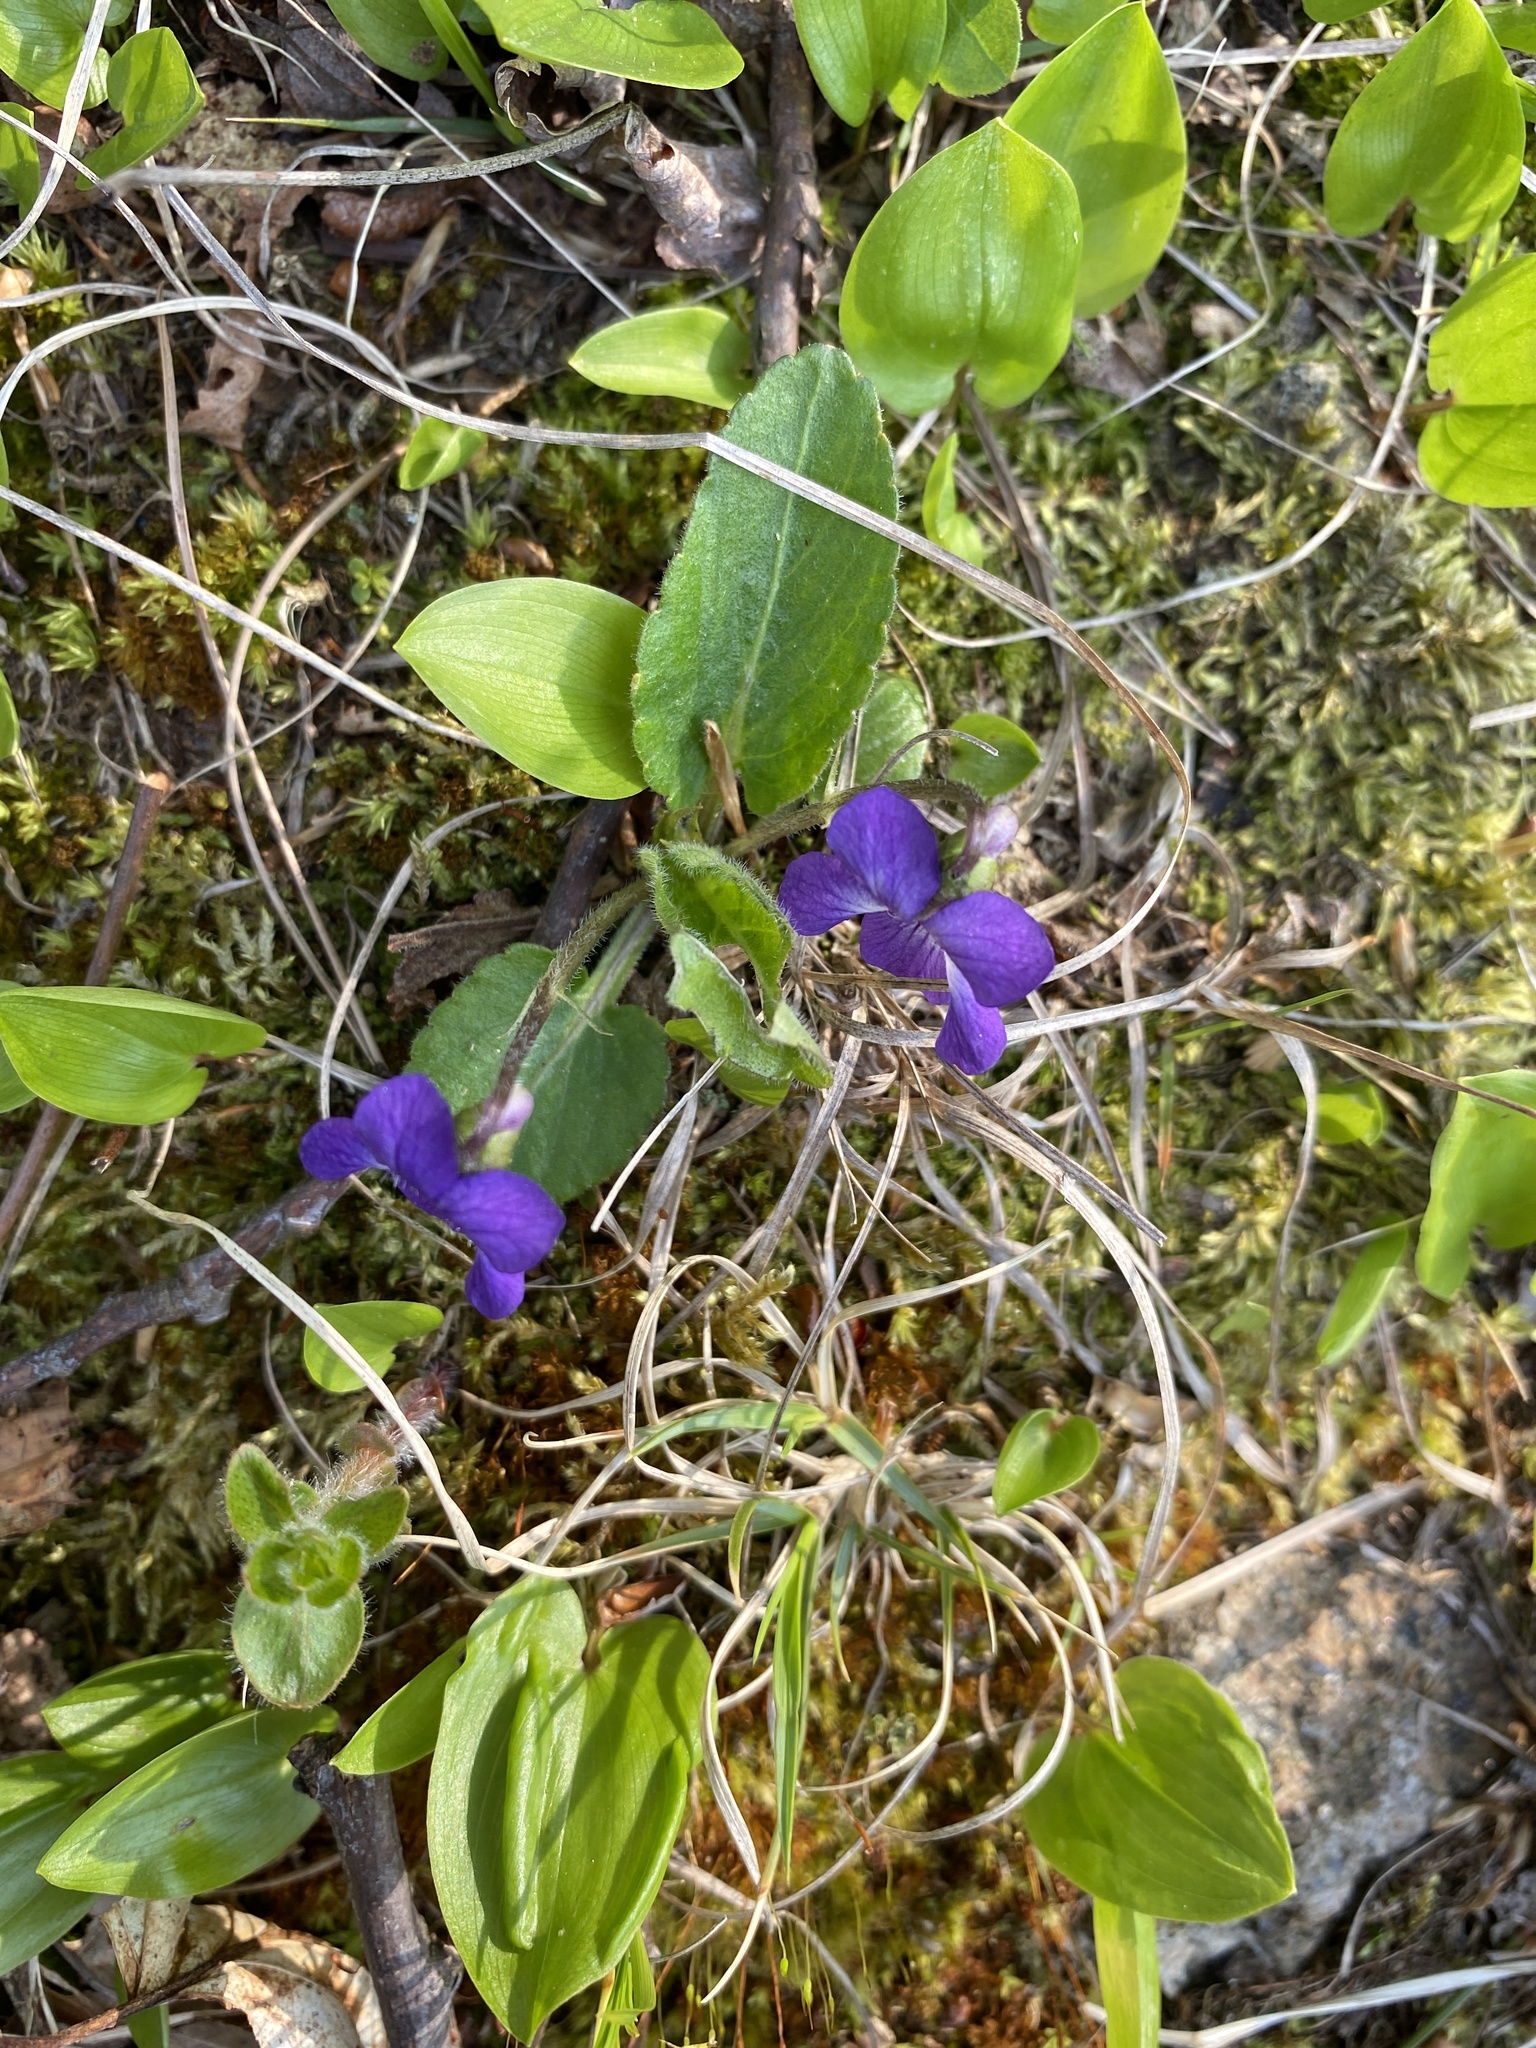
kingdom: Plantae
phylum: Tracheophyta
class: Magnoliopsida
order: Malpighiales
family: Violaceae
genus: Viola
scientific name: Viola fimbriatula
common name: Sand violet
